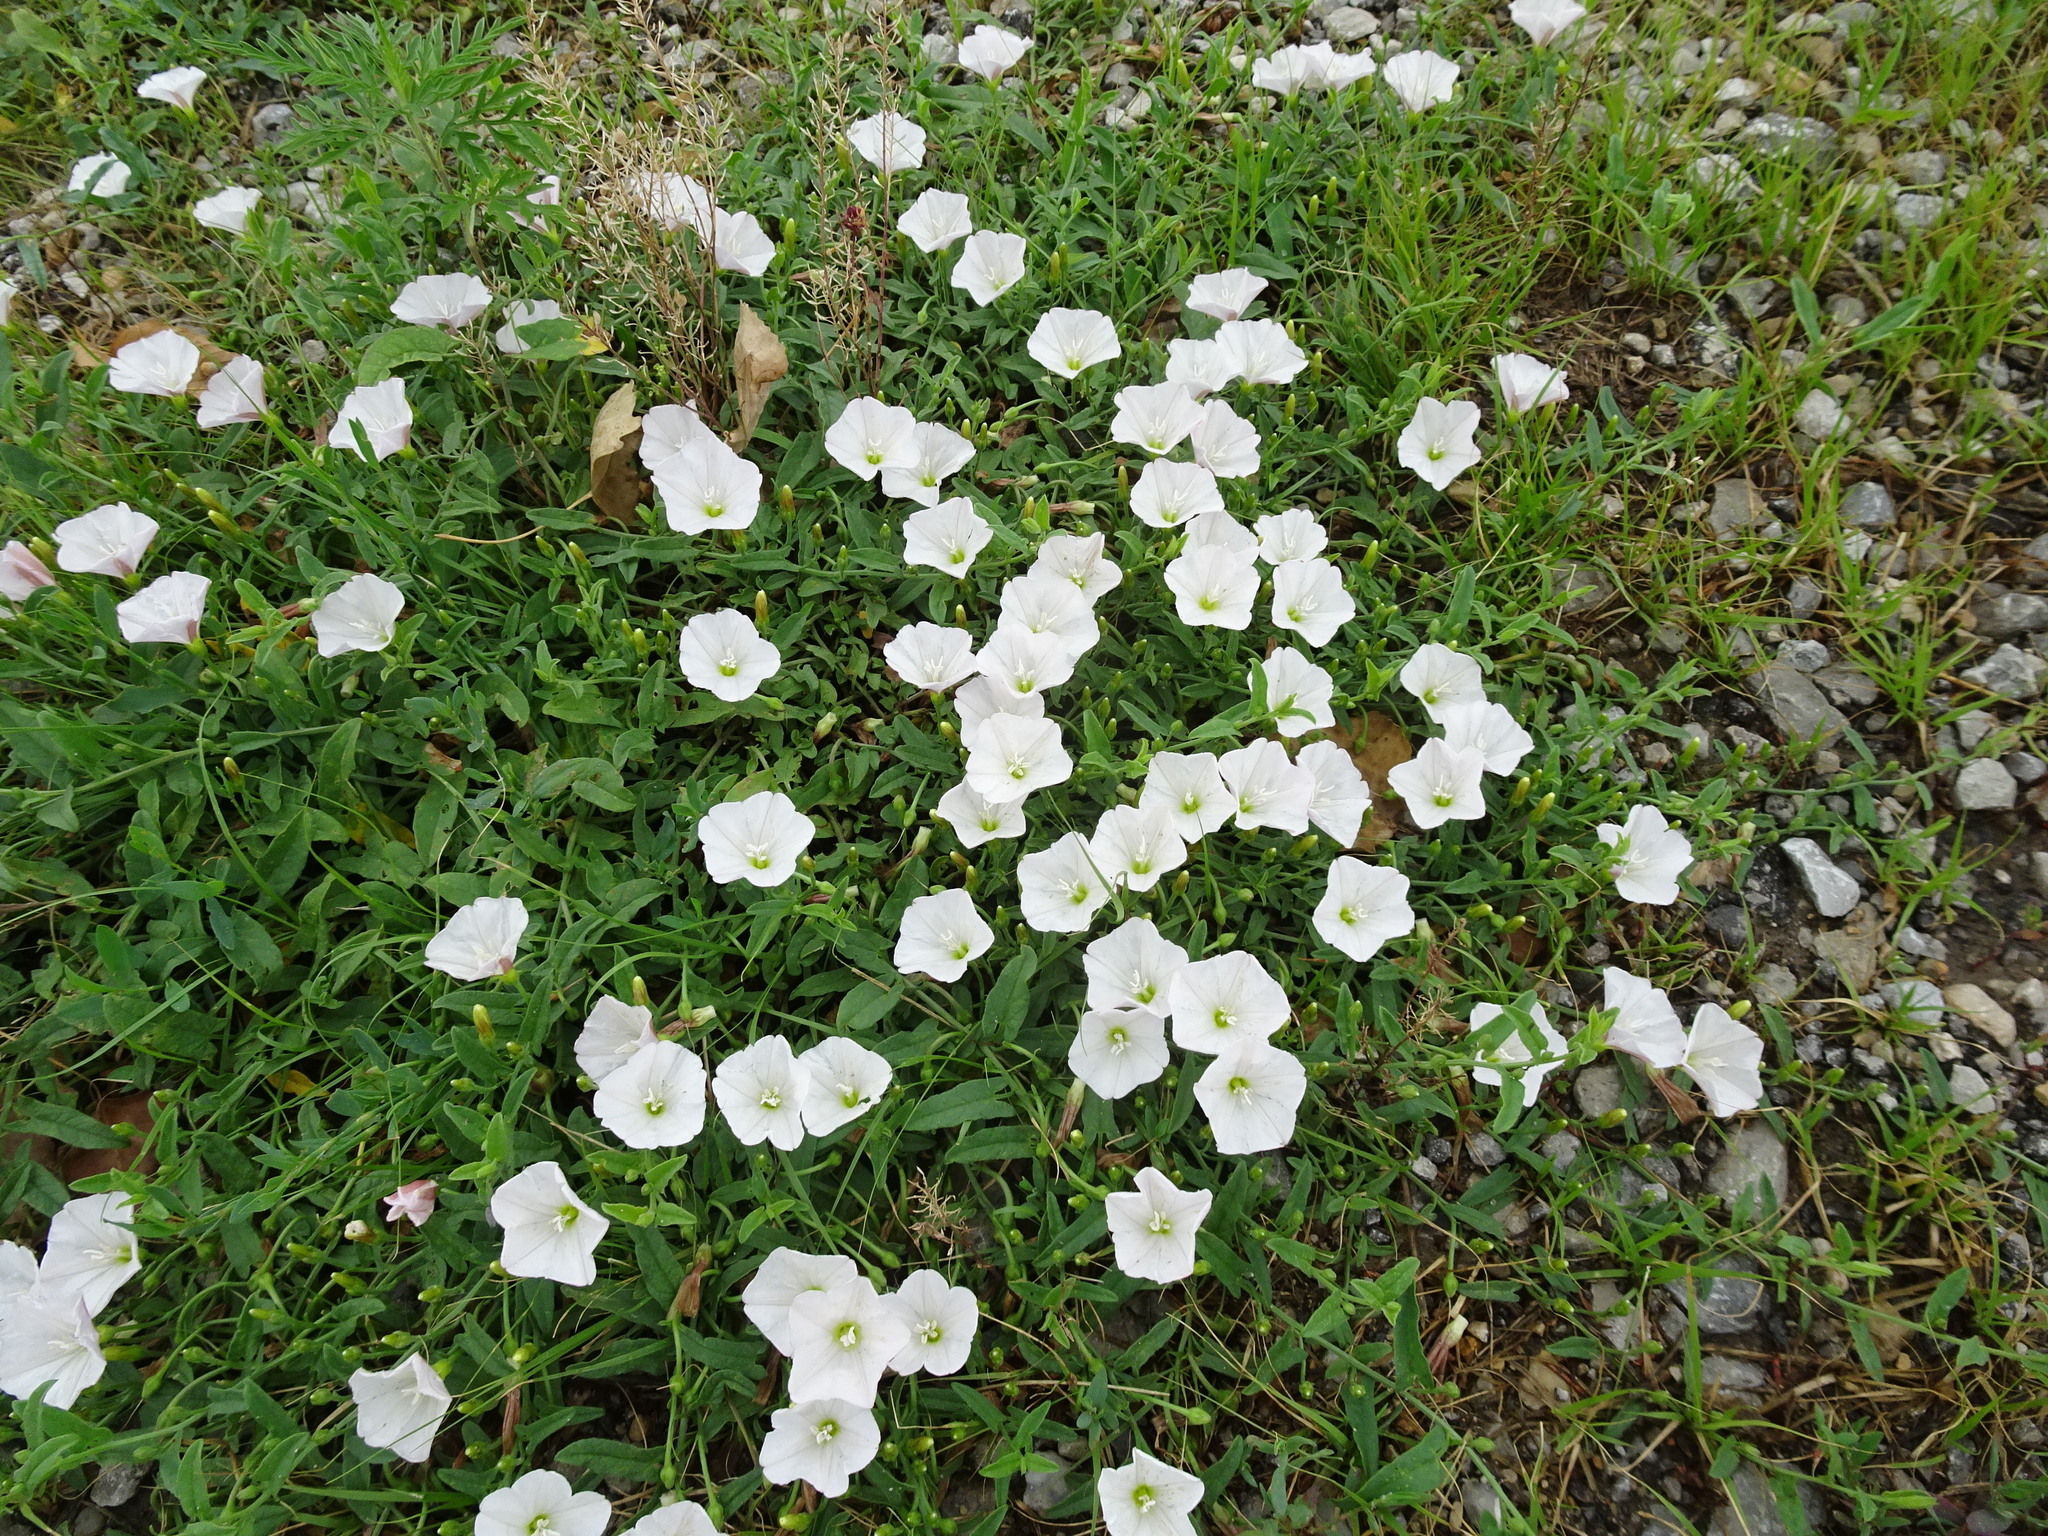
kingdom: Plantae
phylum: Tracheophyta
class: Magnoliopsida
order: Solanales
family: Convolvulaceae
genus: Convolvulus
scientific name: Convolvulus arvensis
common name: Field bindweed
